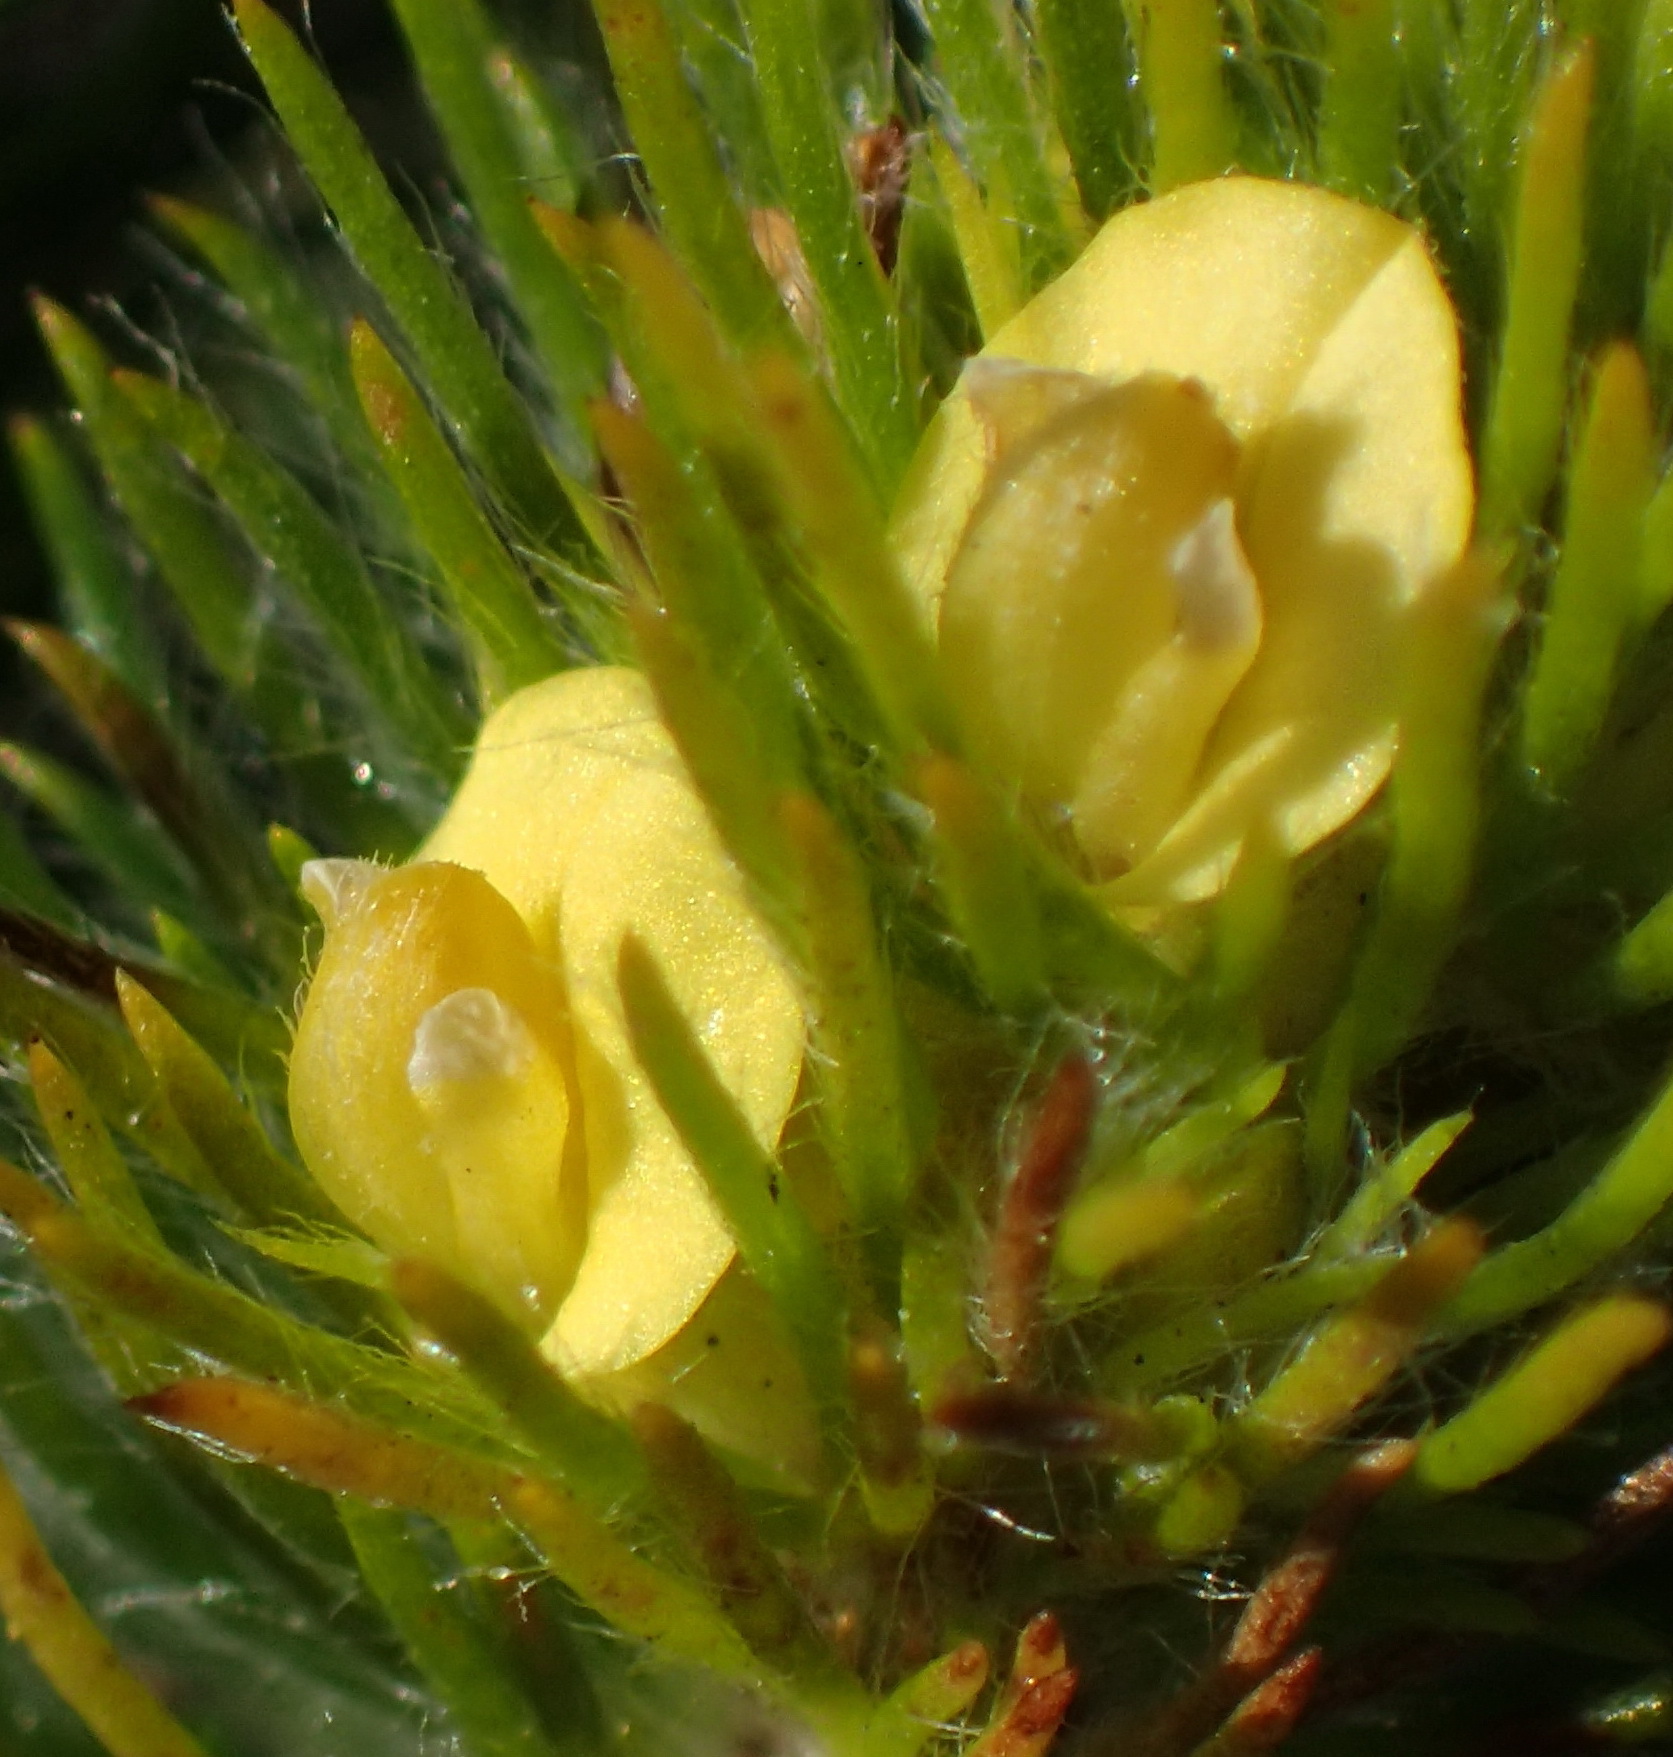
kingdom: Plantae
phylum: Tracheophyta
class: Magnoliopsida
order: Fabales
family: Fabaceae
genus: Aspalathus
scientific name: Aspalathus alopecurus
